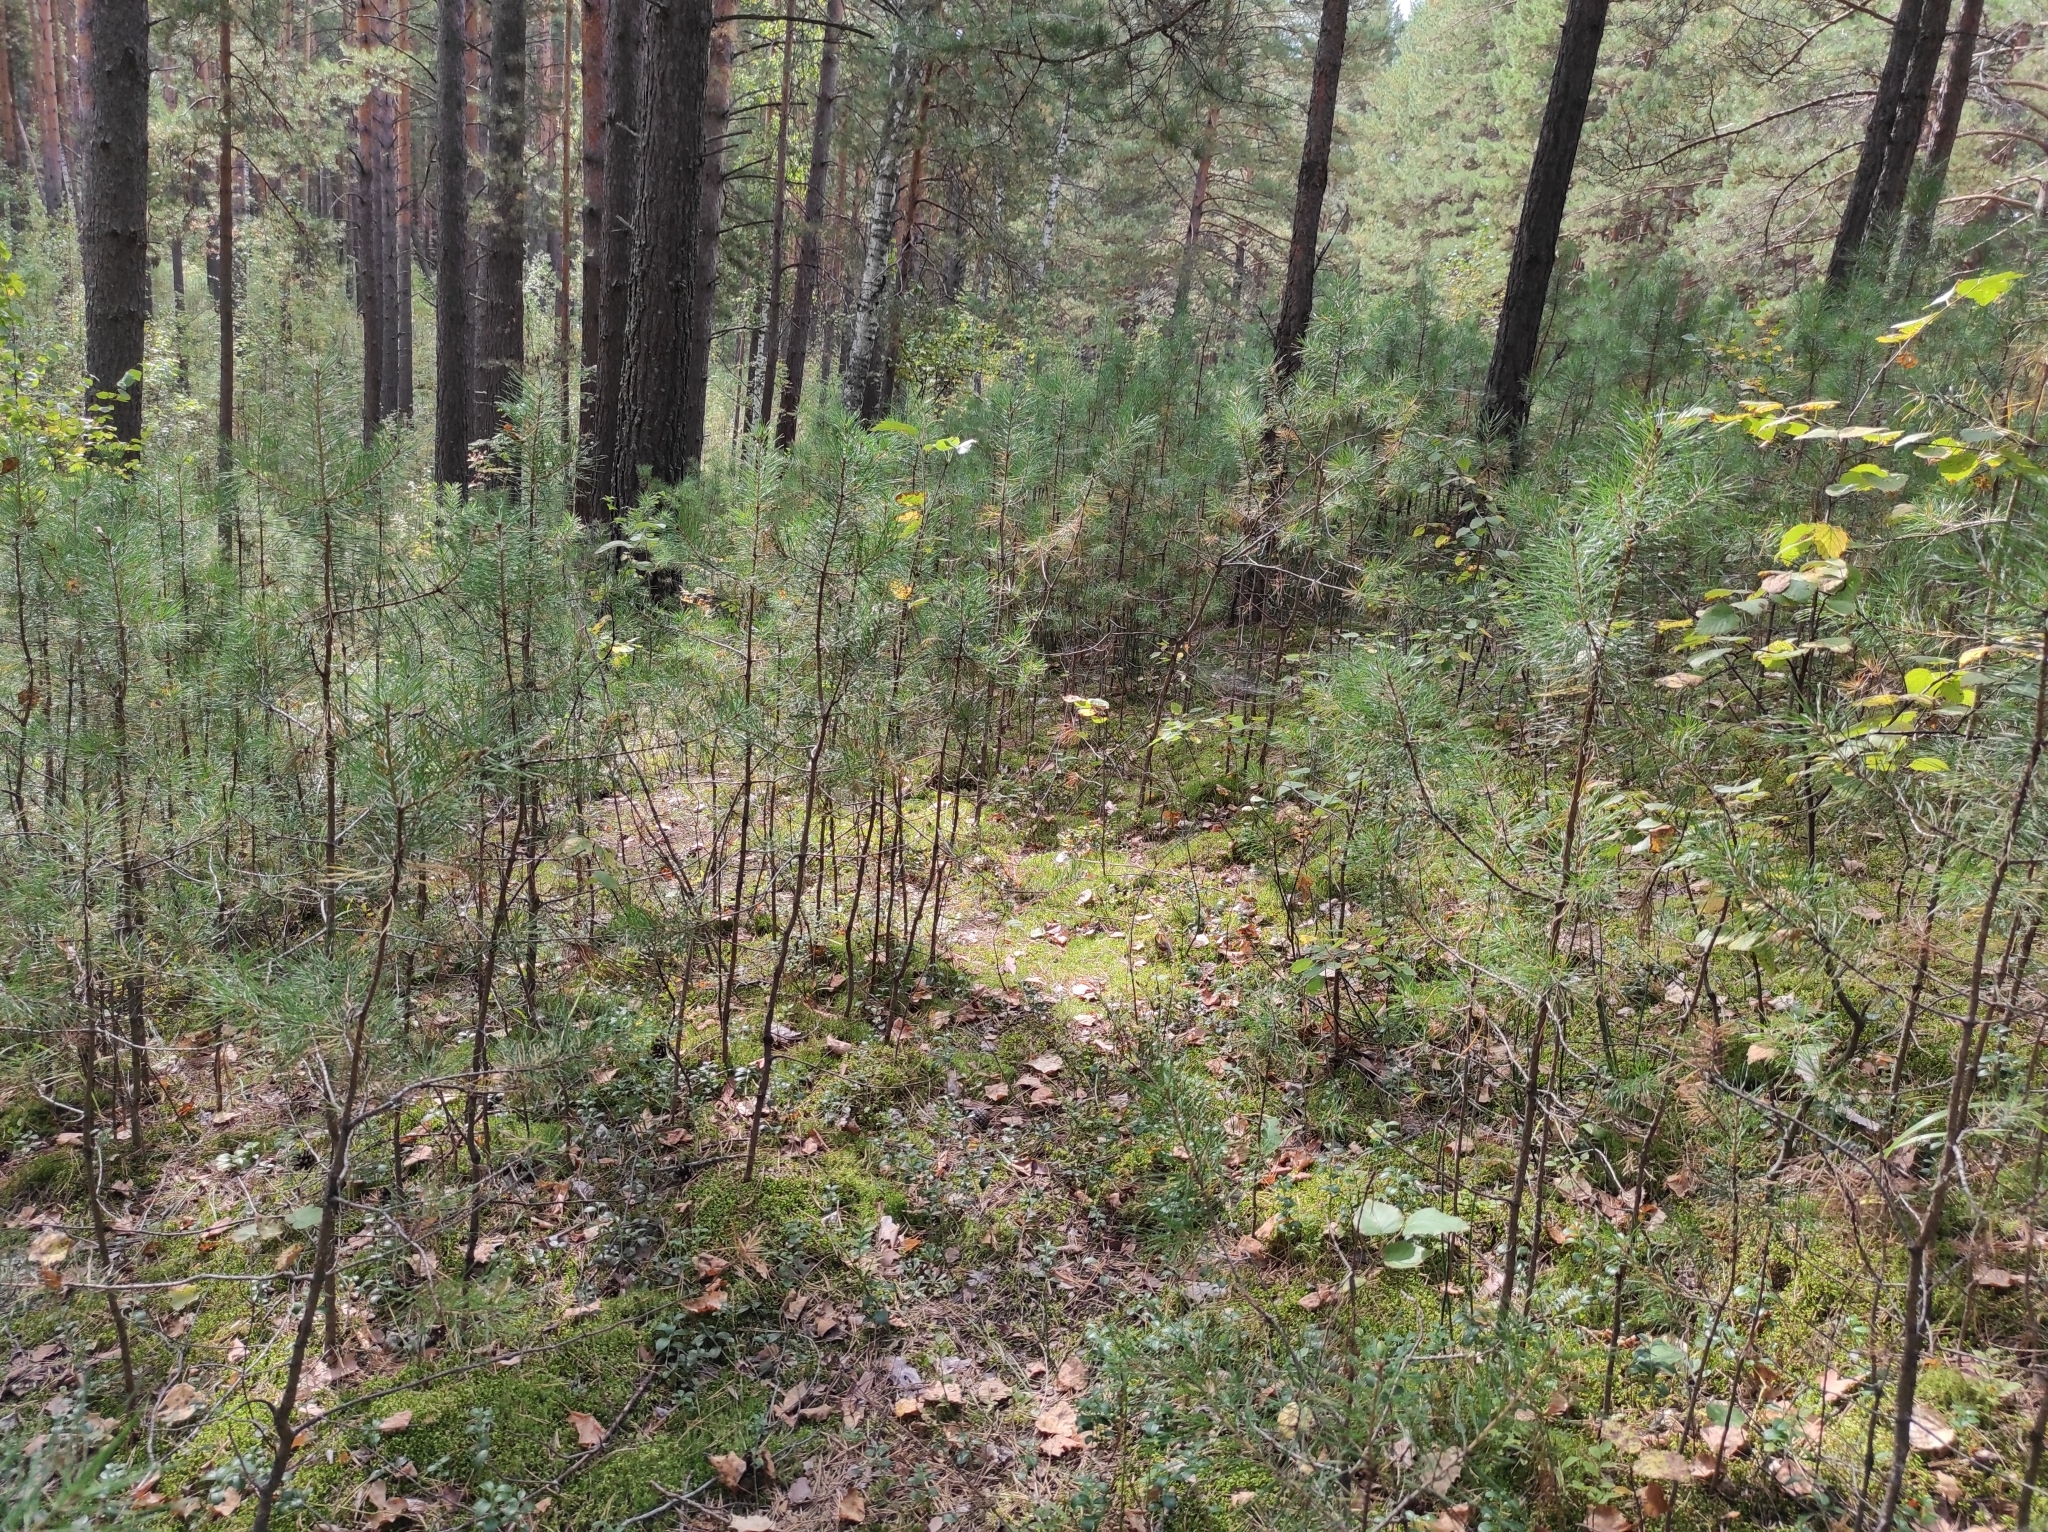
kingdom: Plantae
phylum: Tracheophyta
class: Pinopsida
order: Pinales
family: Pinaceae
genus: Pinus
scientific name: Pinus sylvestris
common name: Scots pine
